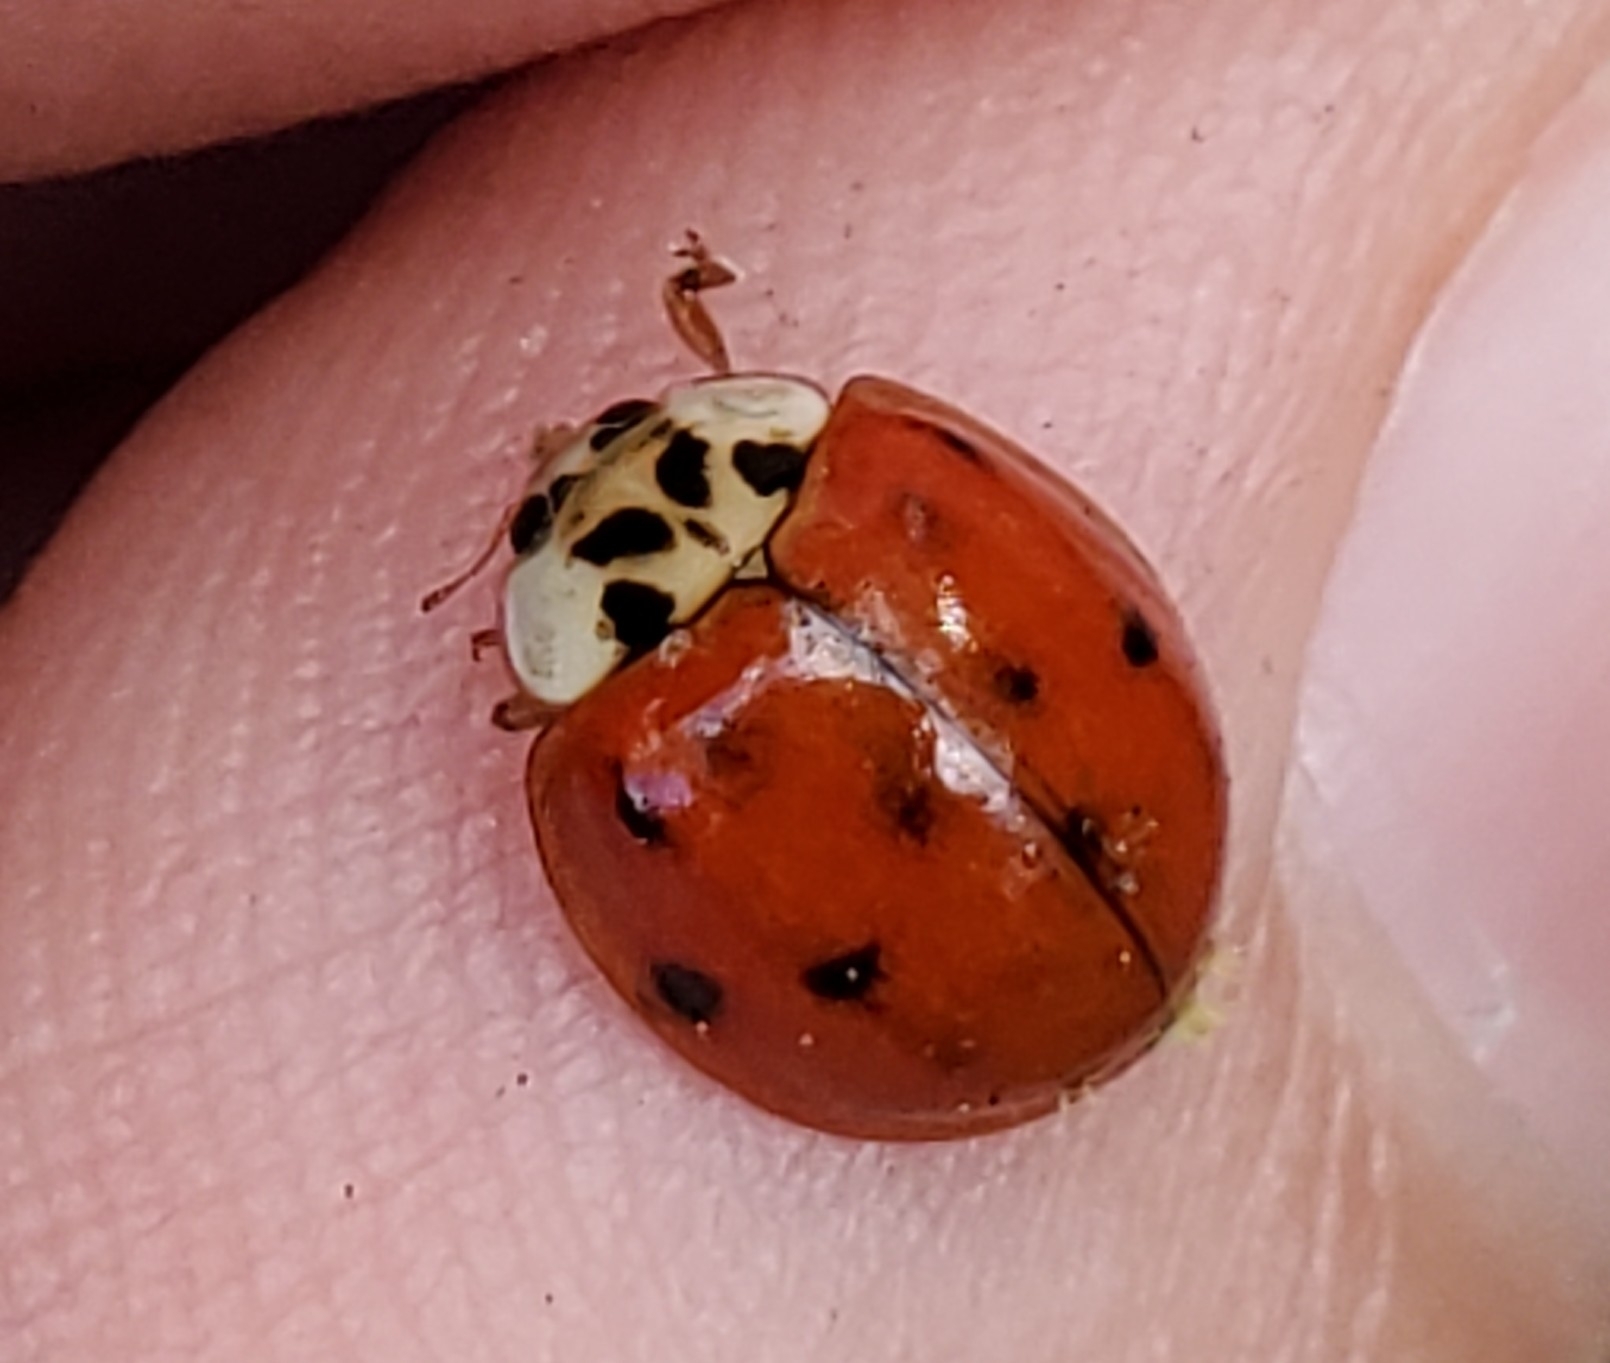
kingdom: Animalia
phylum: Arthropoda
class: Insecta
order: Coleoptera
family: Coccinellidae
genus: Harmonia
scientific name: Harmonia axyridis
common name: Harlequin ladybird
